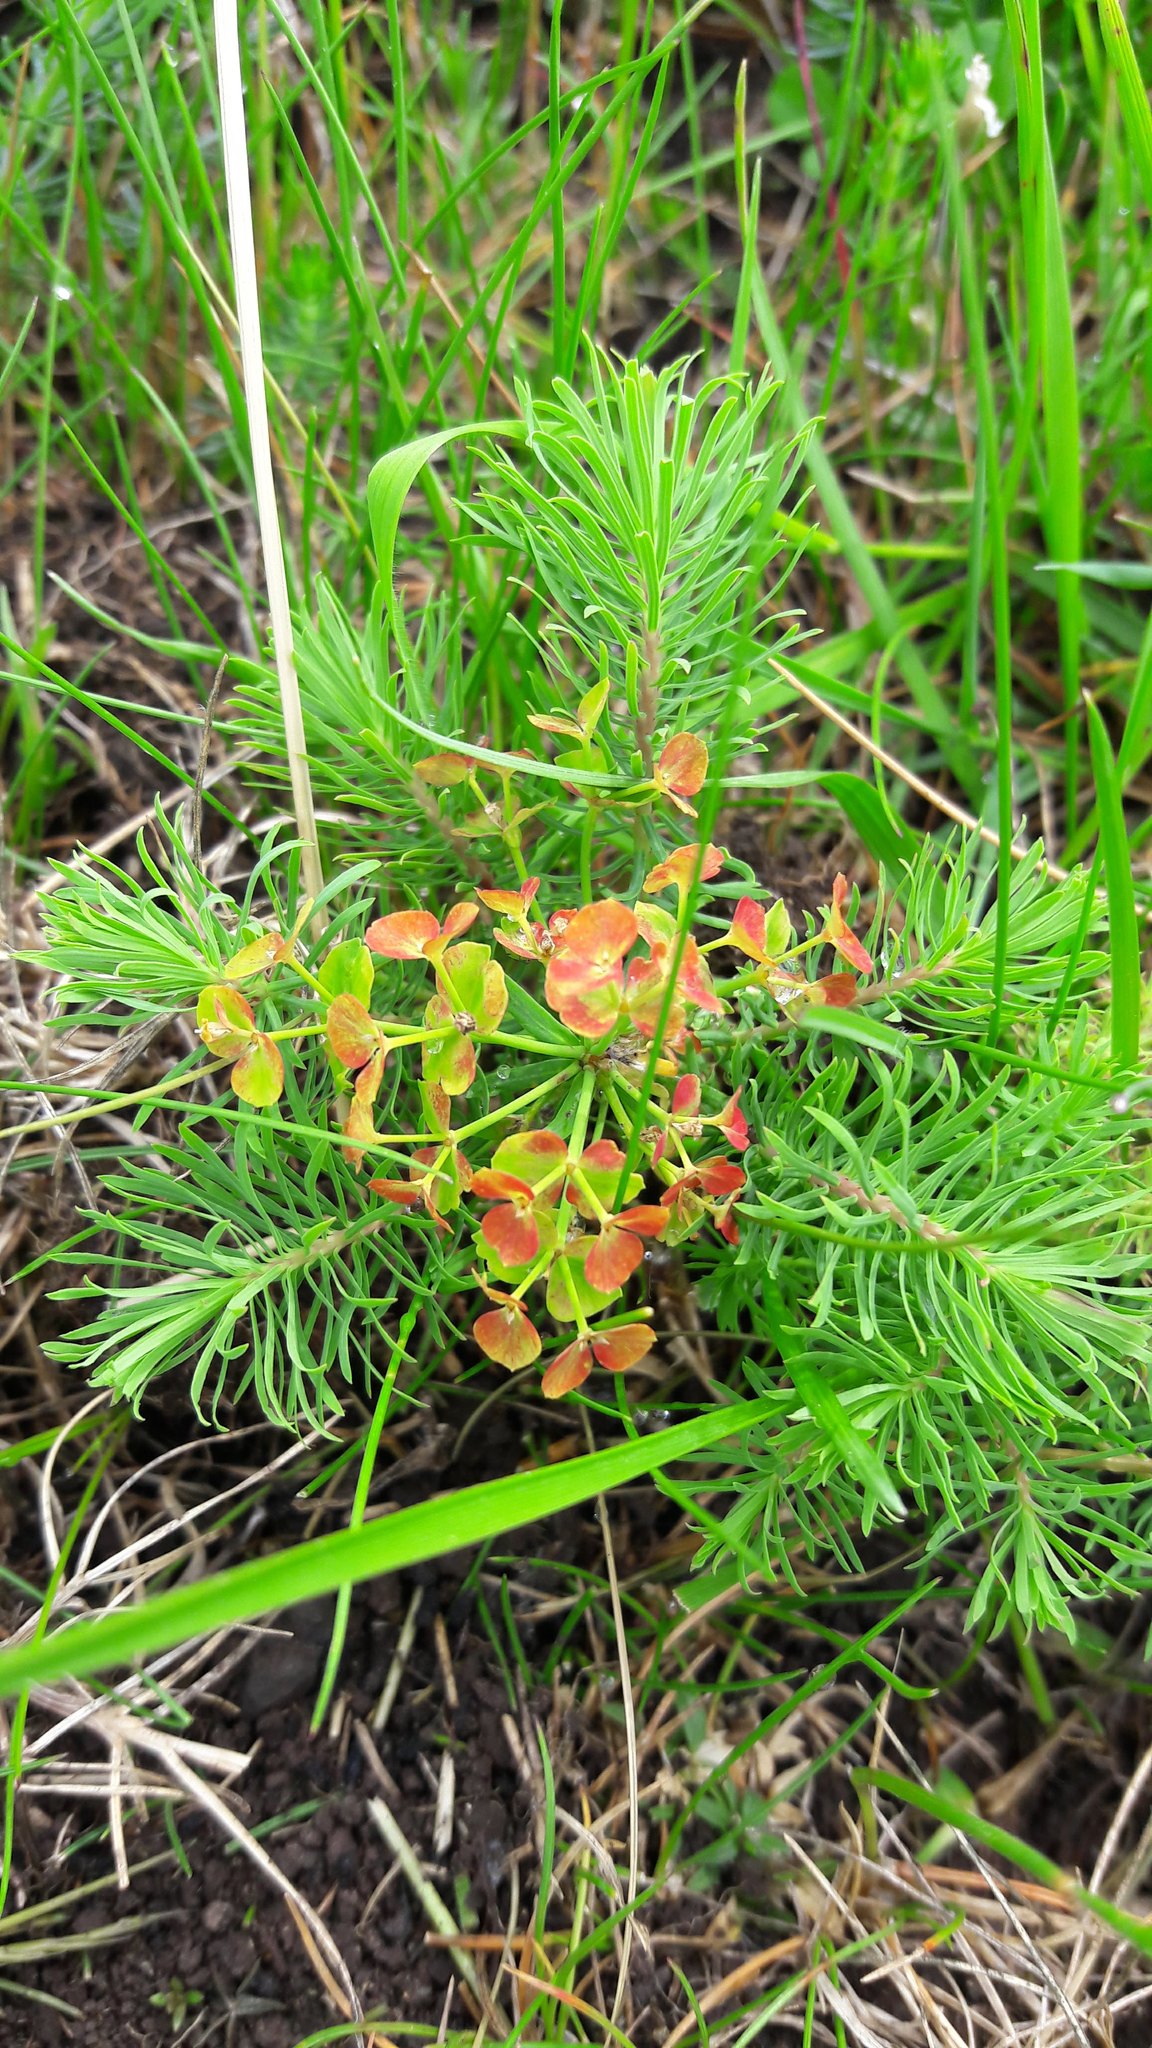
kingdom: Plantae
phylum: Tracheophyta
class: Magnoliopsida
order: Malpighiales
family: Euphorbiaceae
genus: Euphorbia
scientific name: Euphorbia cyparissias
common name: Cypress spurge
